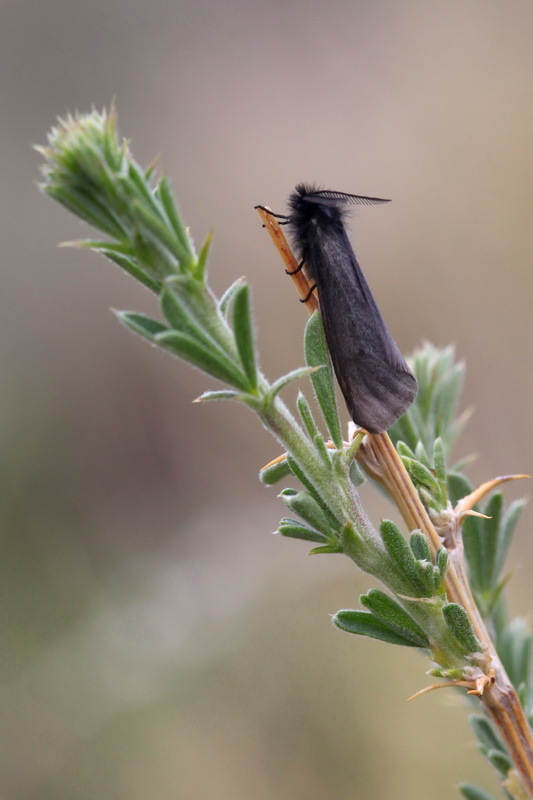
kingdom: Animalia
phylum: Arthropoda
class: Insecta
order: Lepidoptera
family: Erebidae
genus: Epimydia
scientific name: Epimydia dialampa
